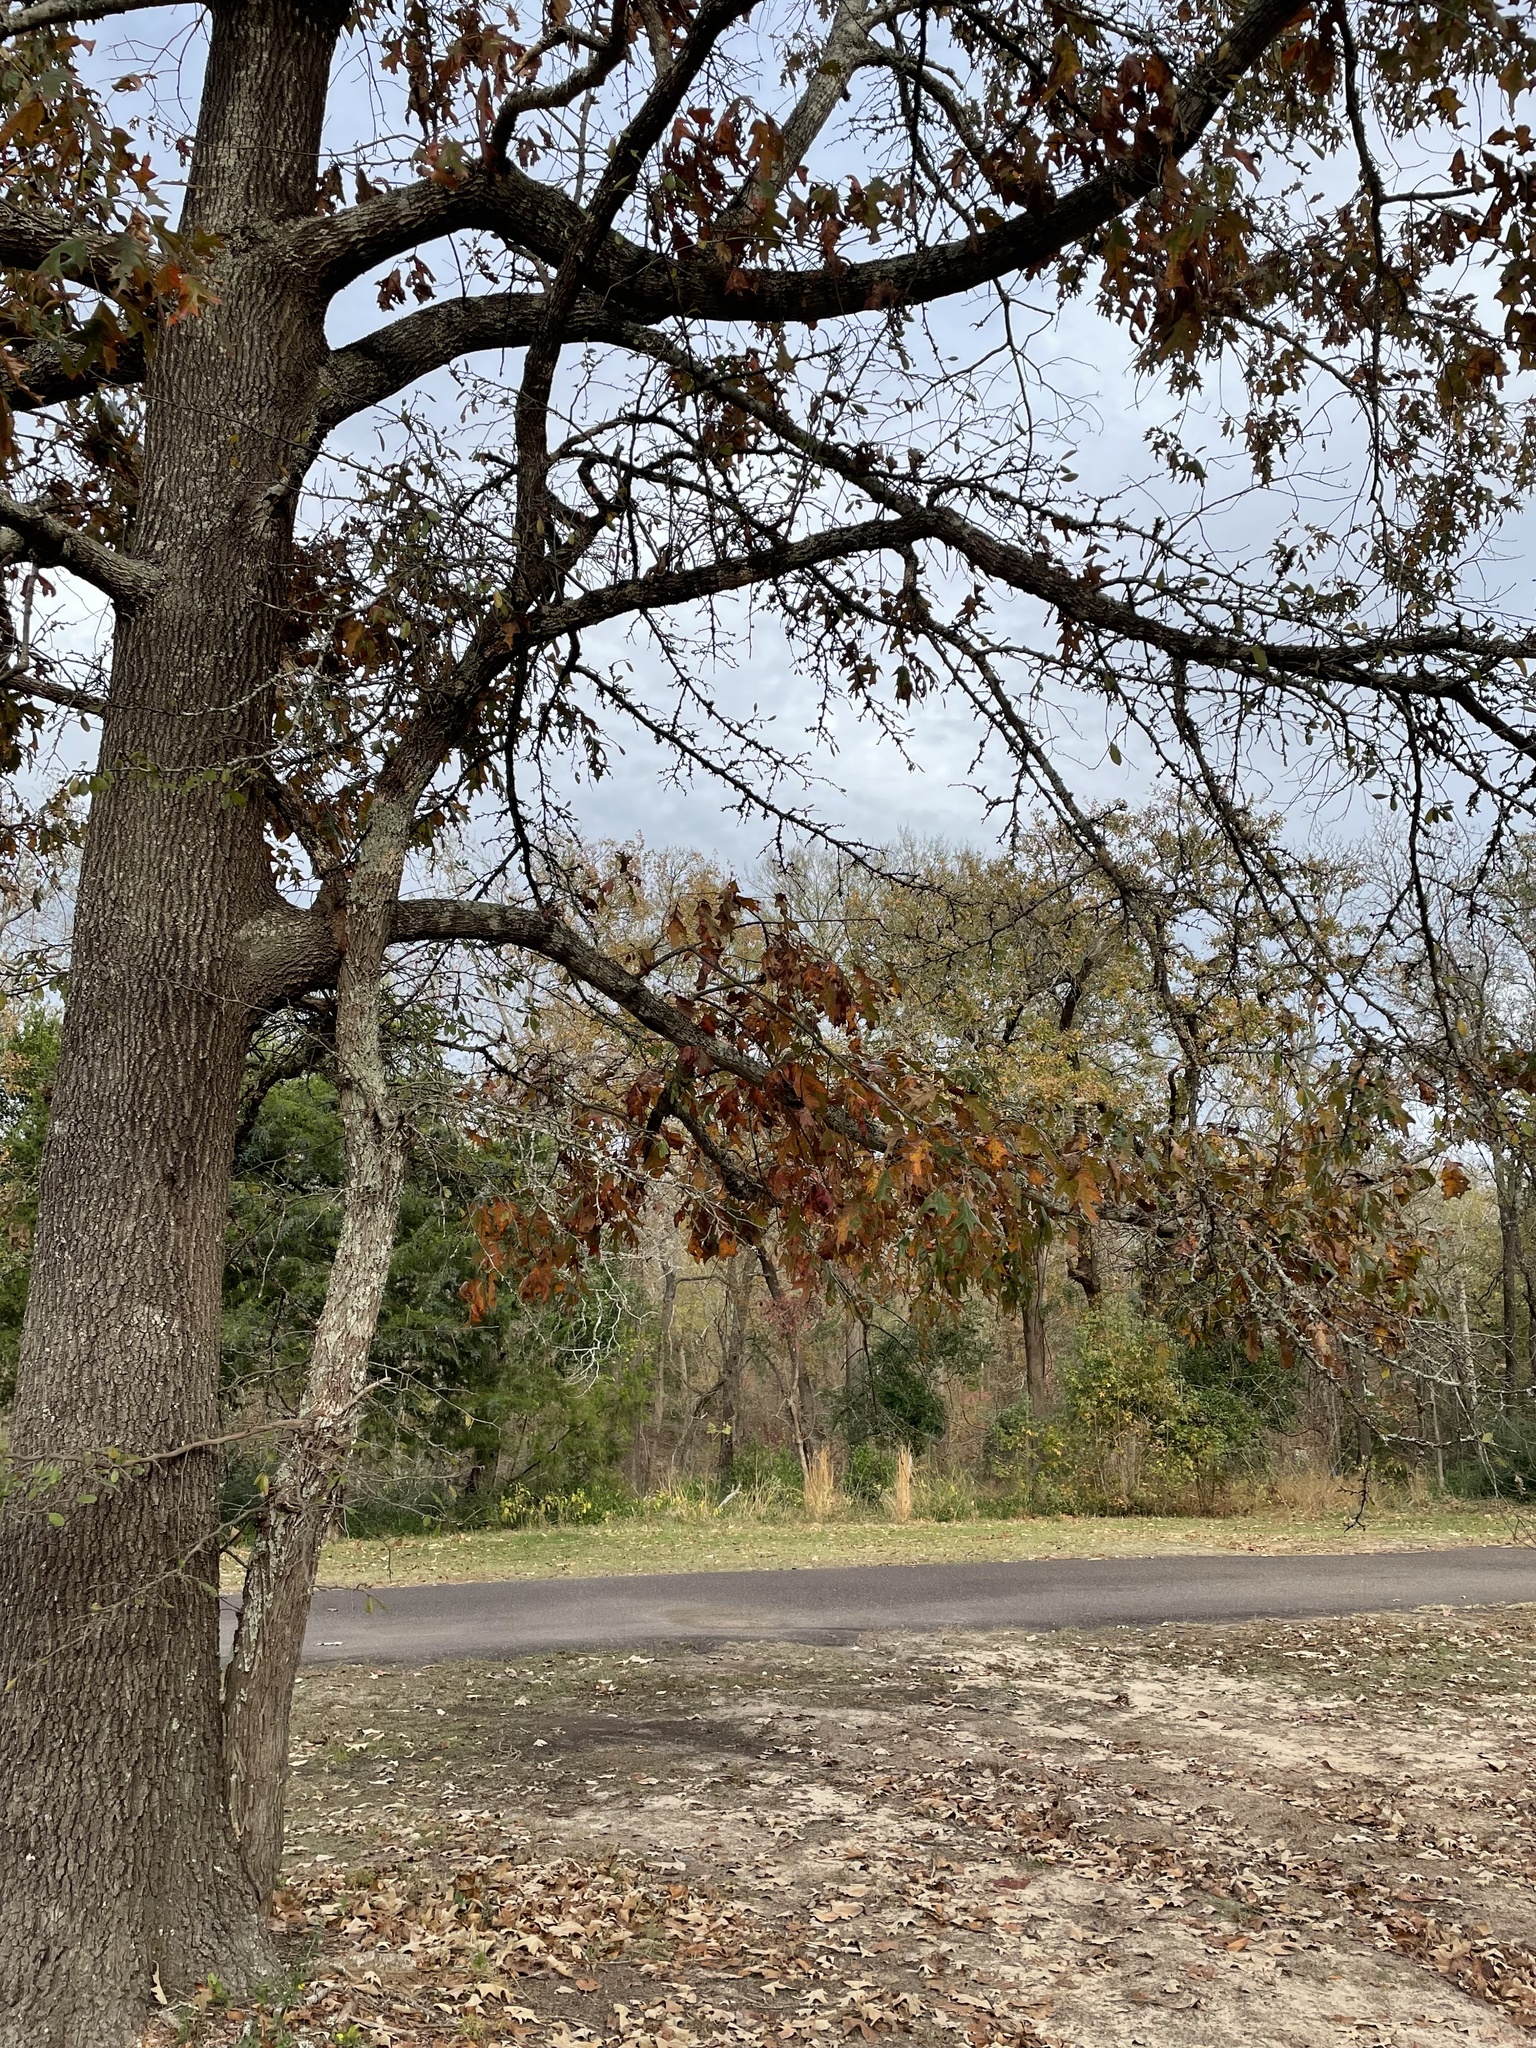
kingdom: Plantae
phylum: Tracheophyta
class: Magnoliopsida
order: Ericales
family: Sapotaceae
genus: Sideroxylon
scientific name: Sideroxylon lanuginosum
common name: Chittamwood
